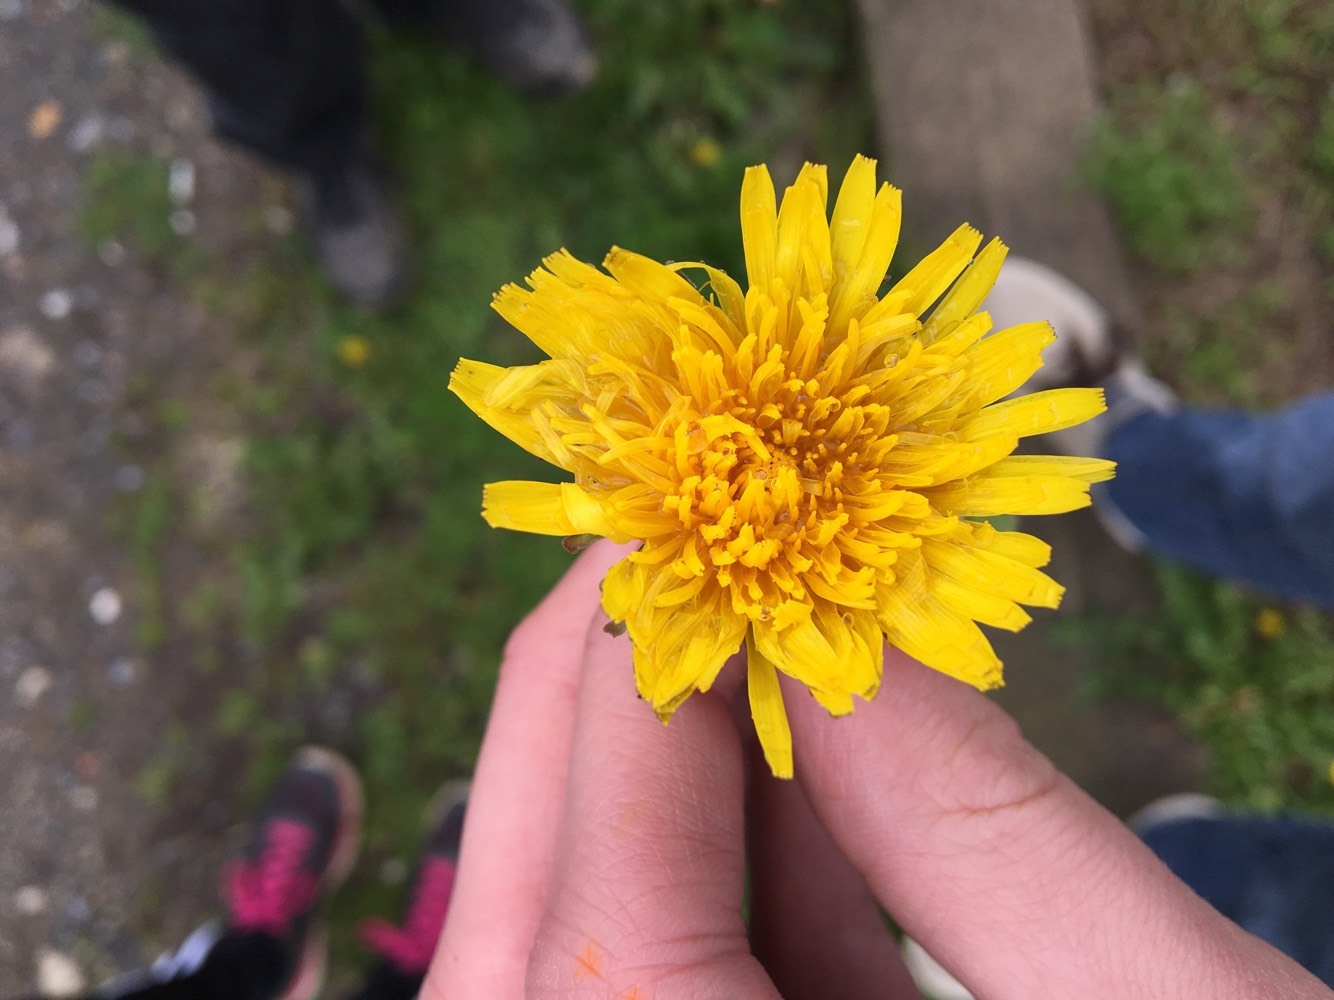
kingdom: Plantae
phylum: Tracheophyta
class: Magnoliopsida
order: Asterales
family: Asteraceae
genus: Taraxacum
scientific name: Taraxacum officinale
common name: Common dandelion
